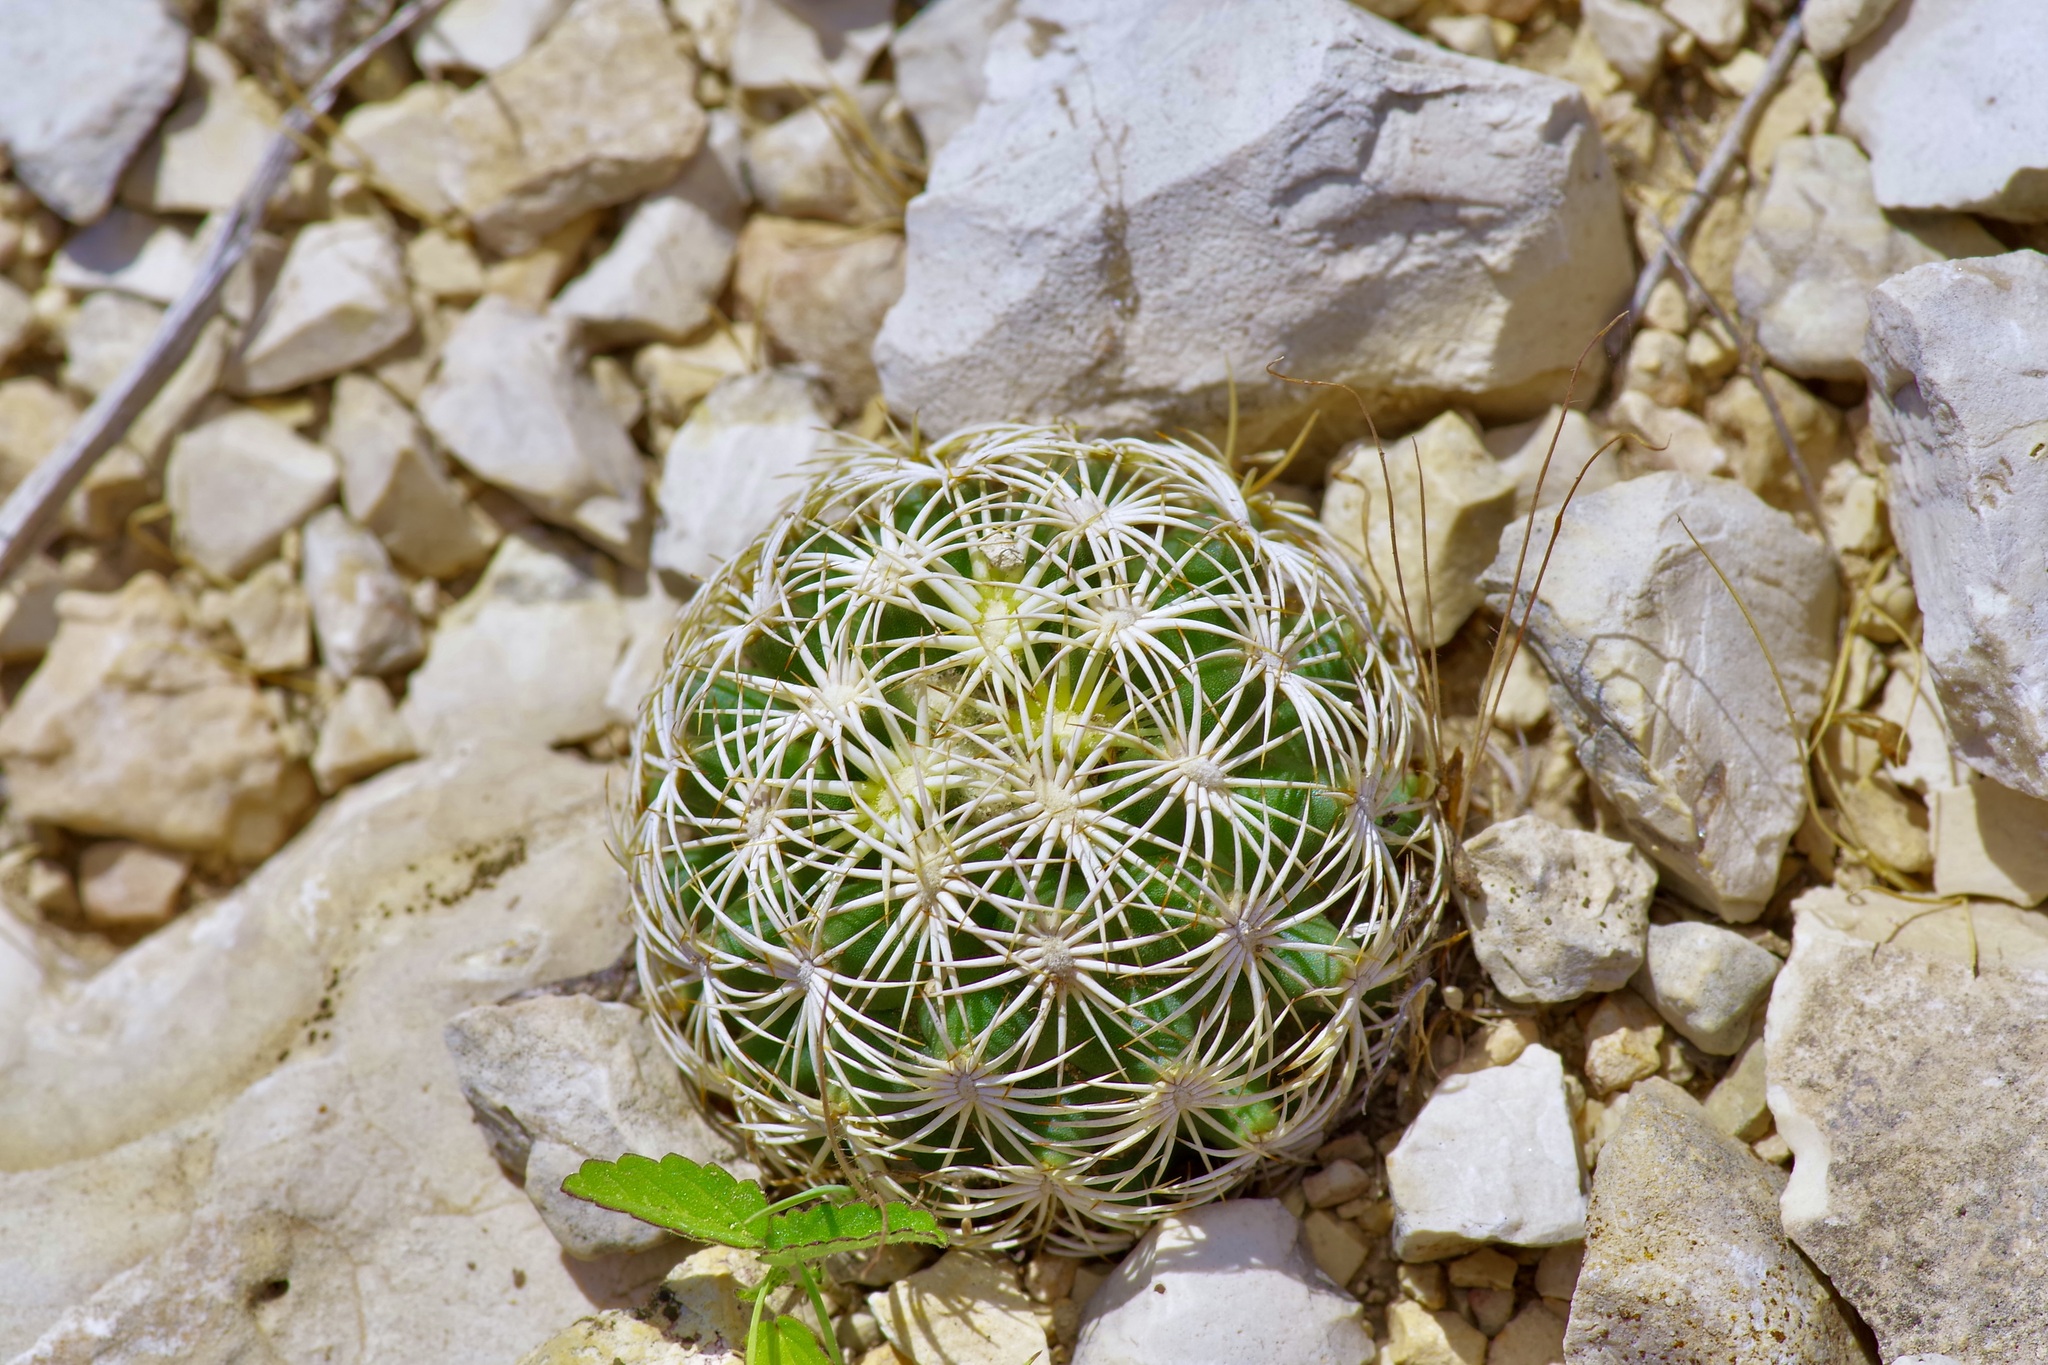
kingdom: Plantae
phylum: Tracheophyta
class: Magnoliopsida
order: Caryophyllales
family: Cactaceae
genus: Coryphantha
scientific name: Coryphantha echinus
